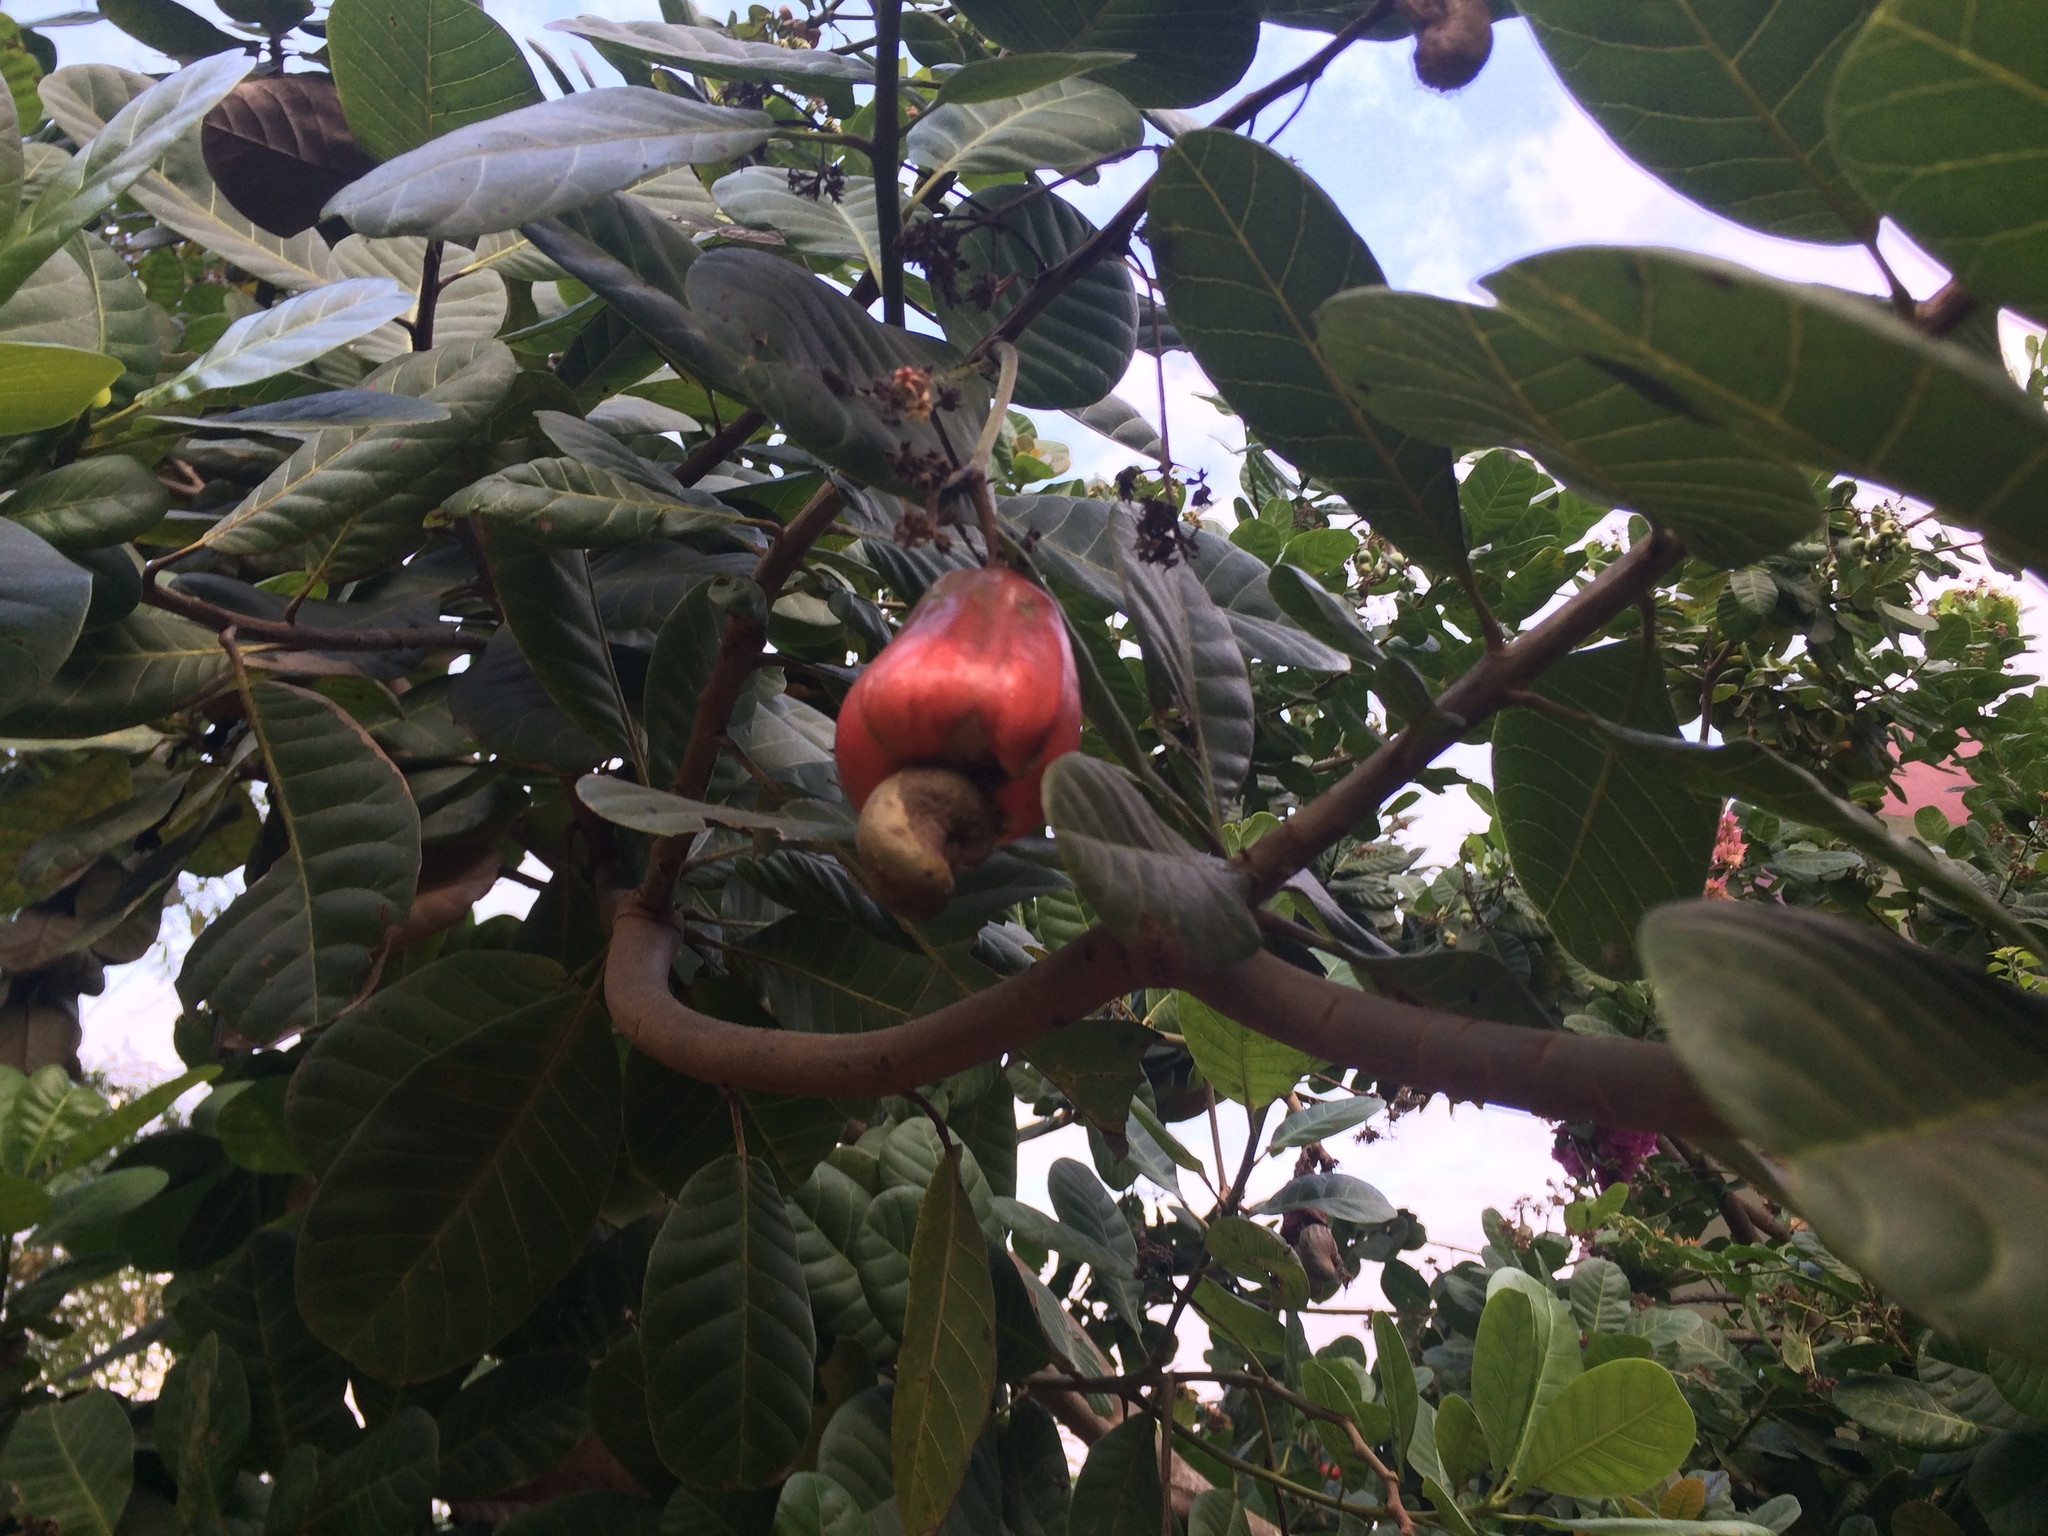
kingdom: Plantae
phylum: Tracheophyta
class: Magnoliopsida
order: Sapindales
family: Anacardiaceae
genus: Anacardium
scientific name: Anacardium occidentale
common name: Cashew
